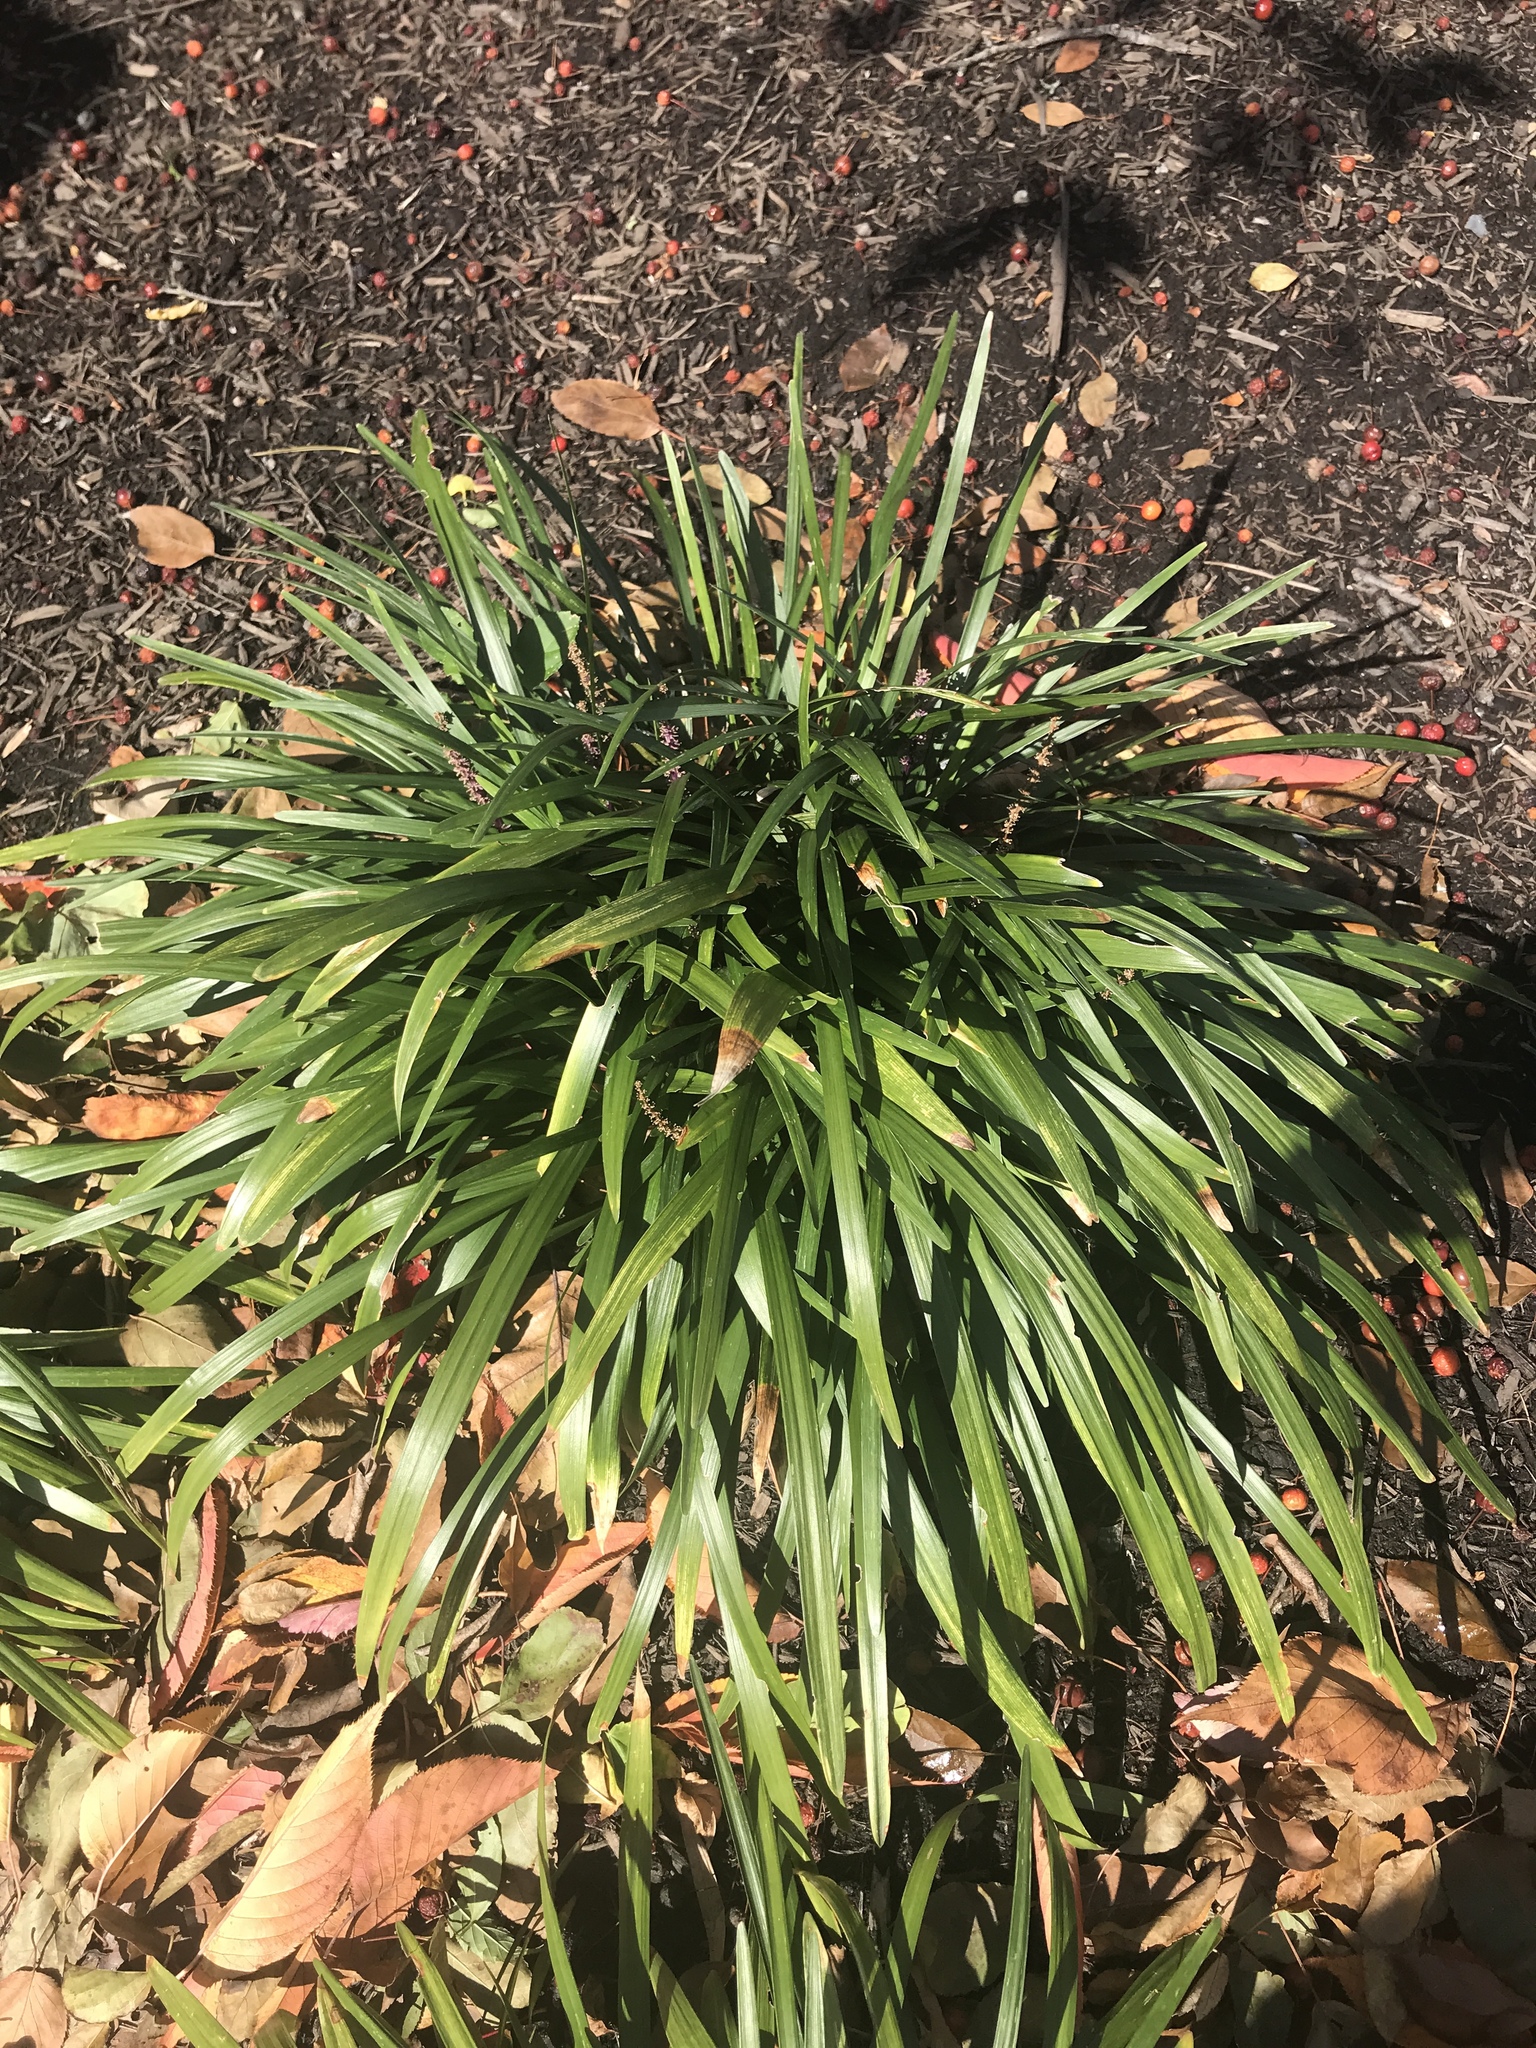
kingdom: Plantae
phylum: Tracheophyta
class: Liliopsida
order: Asparagales
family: Asparagaceae
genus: Liriope
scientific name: Liriope muscari
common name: Big blue lilyturf
